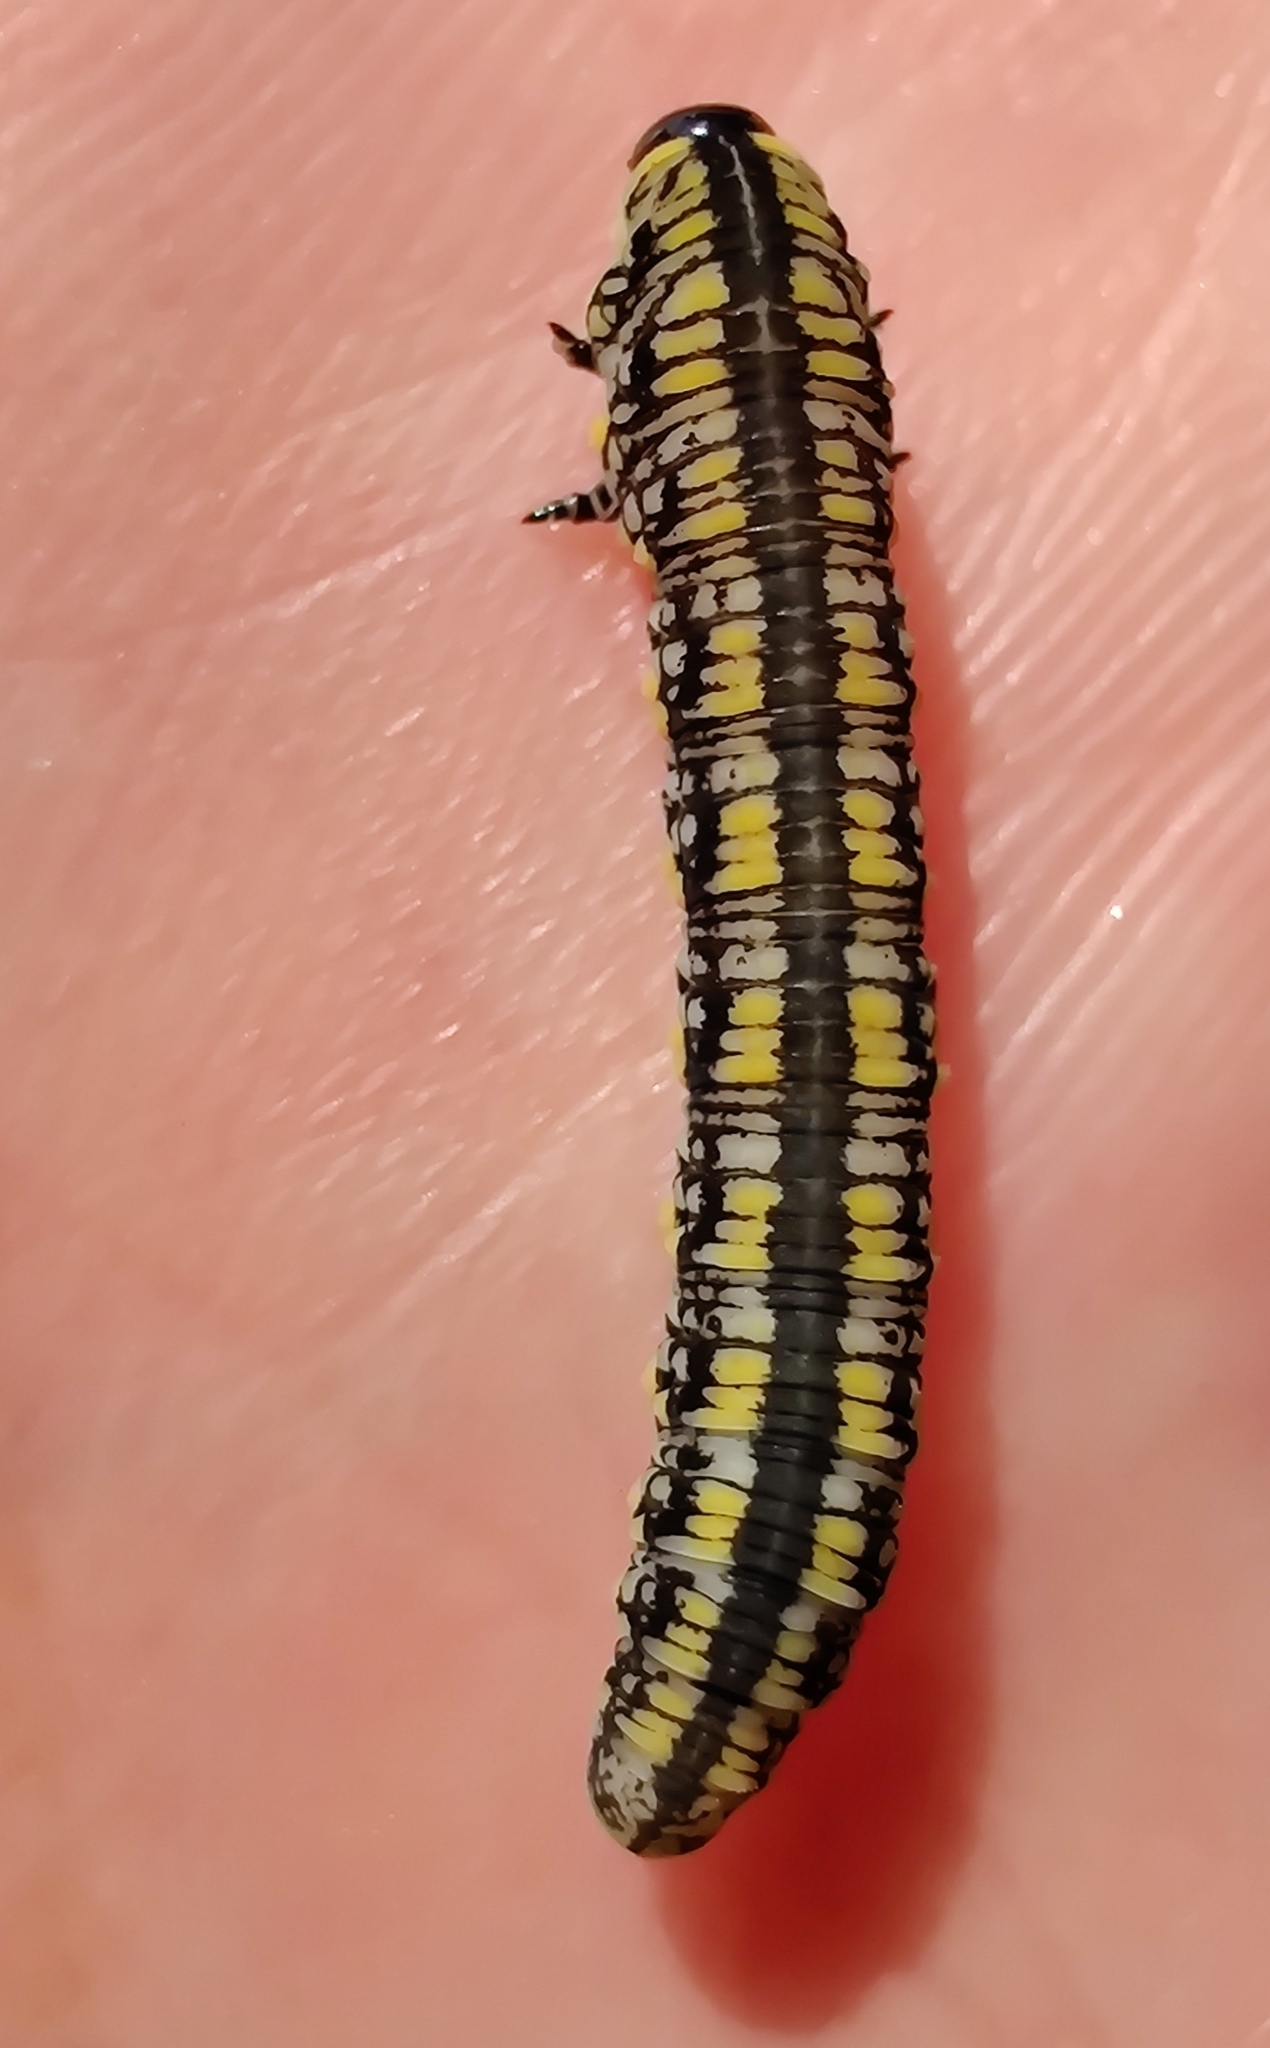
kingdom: Animalia
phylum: Arthropoda
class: Insecta
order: Hymenoptera
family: Diprionidae
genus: Diprion
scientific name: Diprion similis
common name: Pine sawfly
